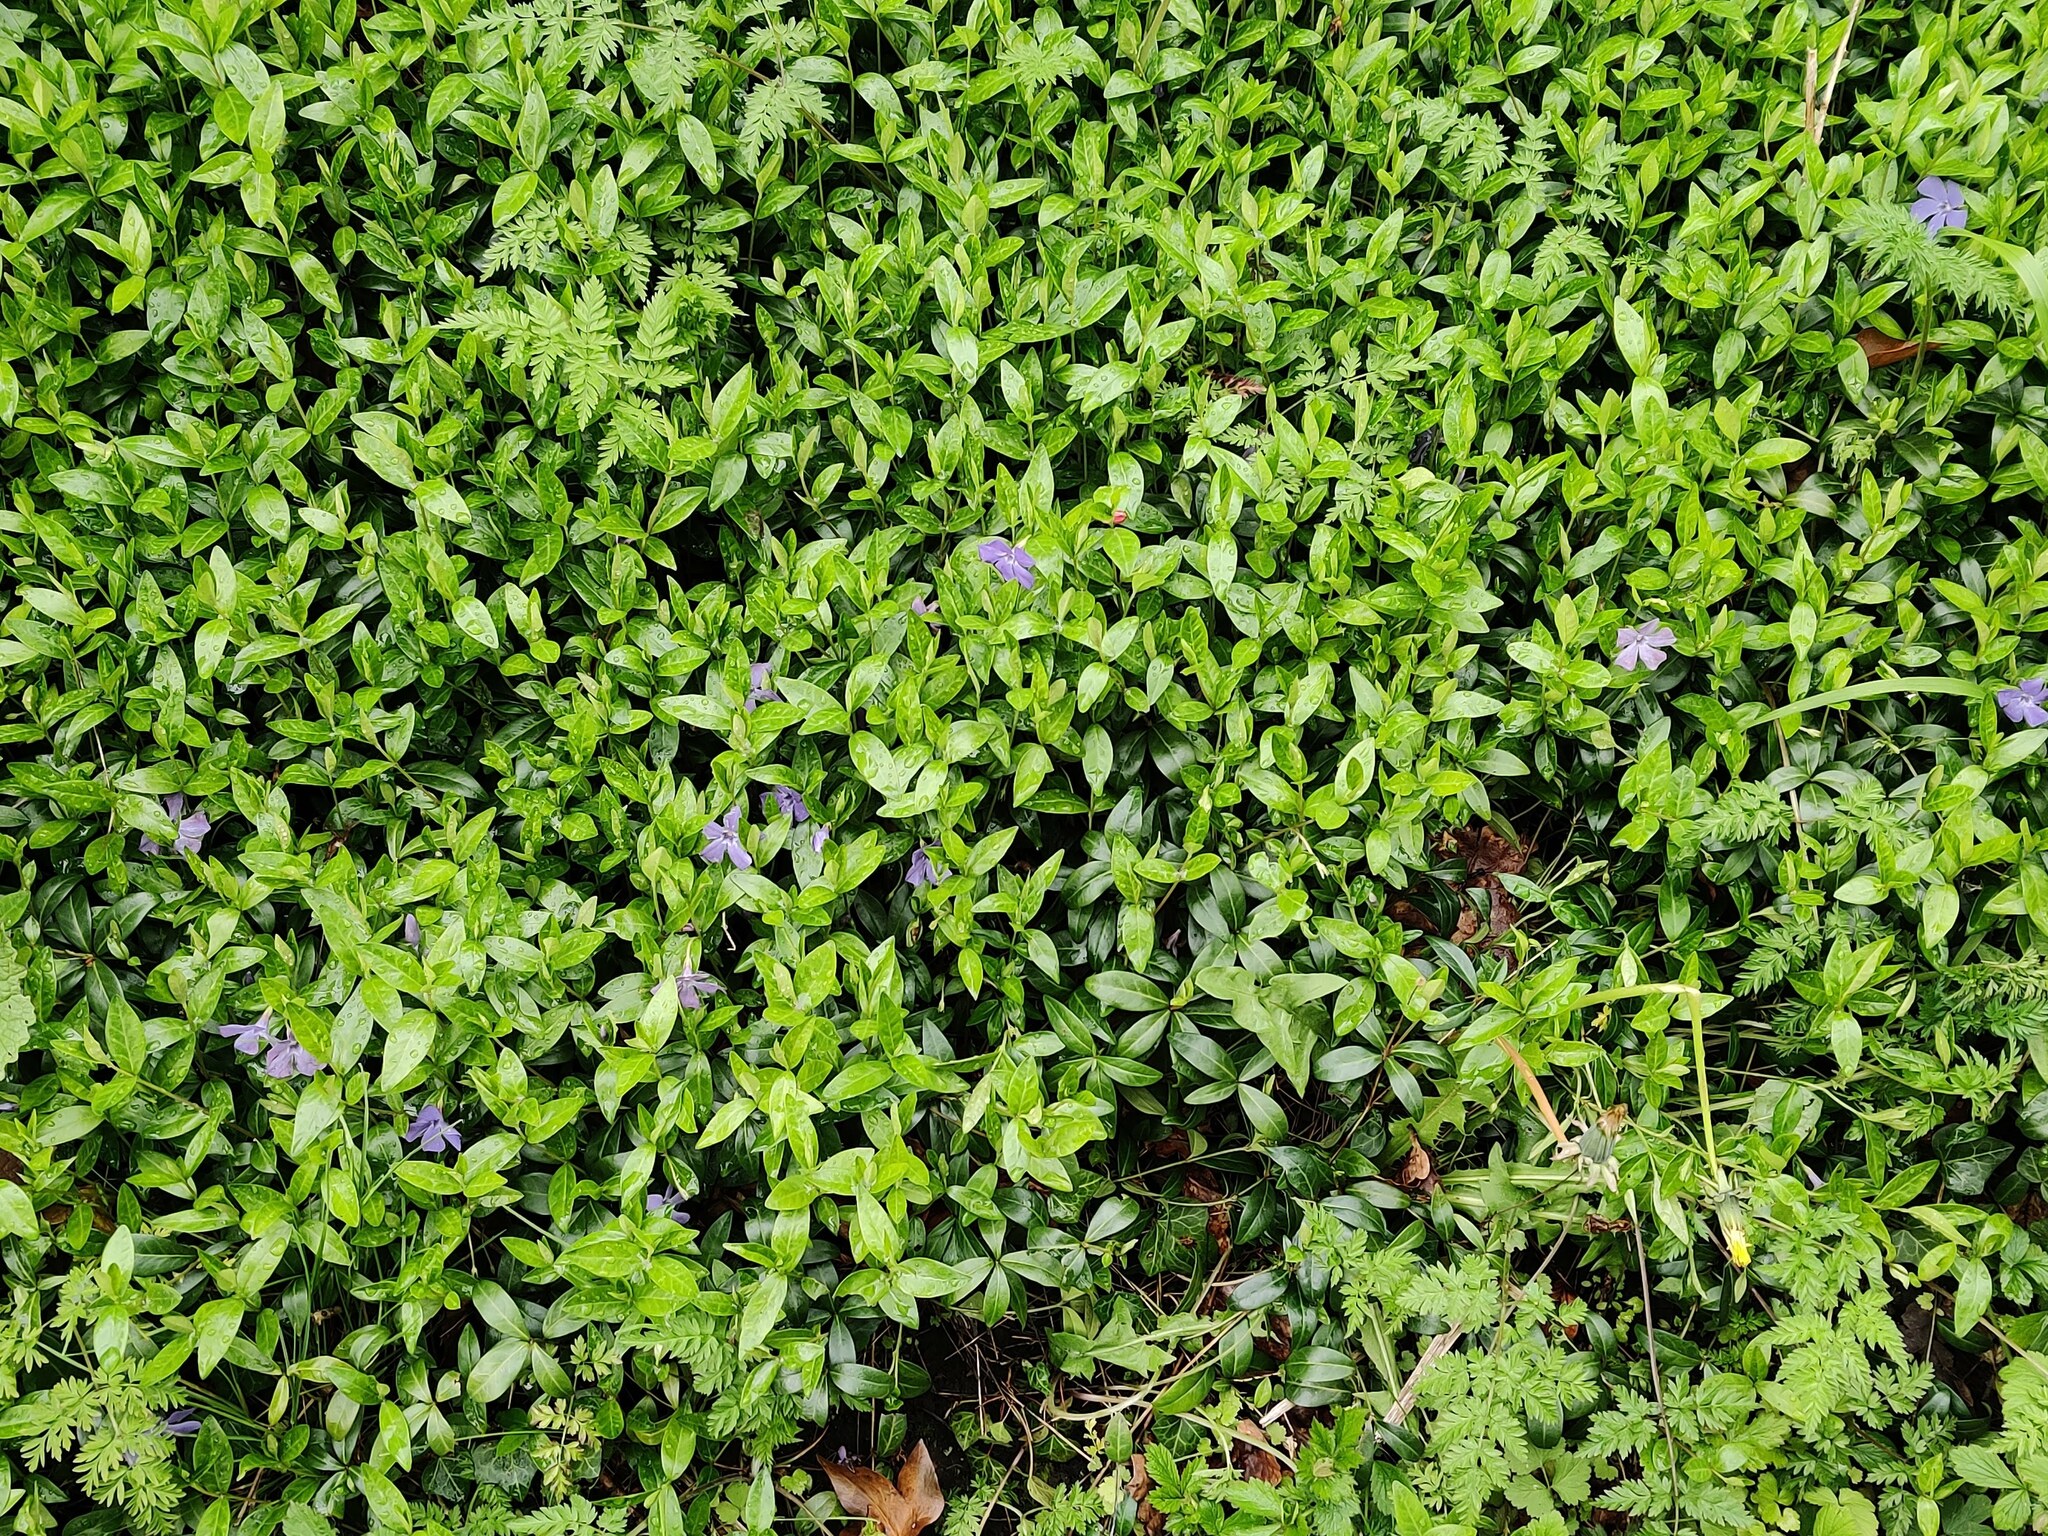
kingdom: Plantae
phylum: Tracheophyta
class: Magnoliopsida
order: Gentianales
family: Apocynaceae
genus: Vinca
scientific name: Vinca minor
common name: Lesser periwinkle
